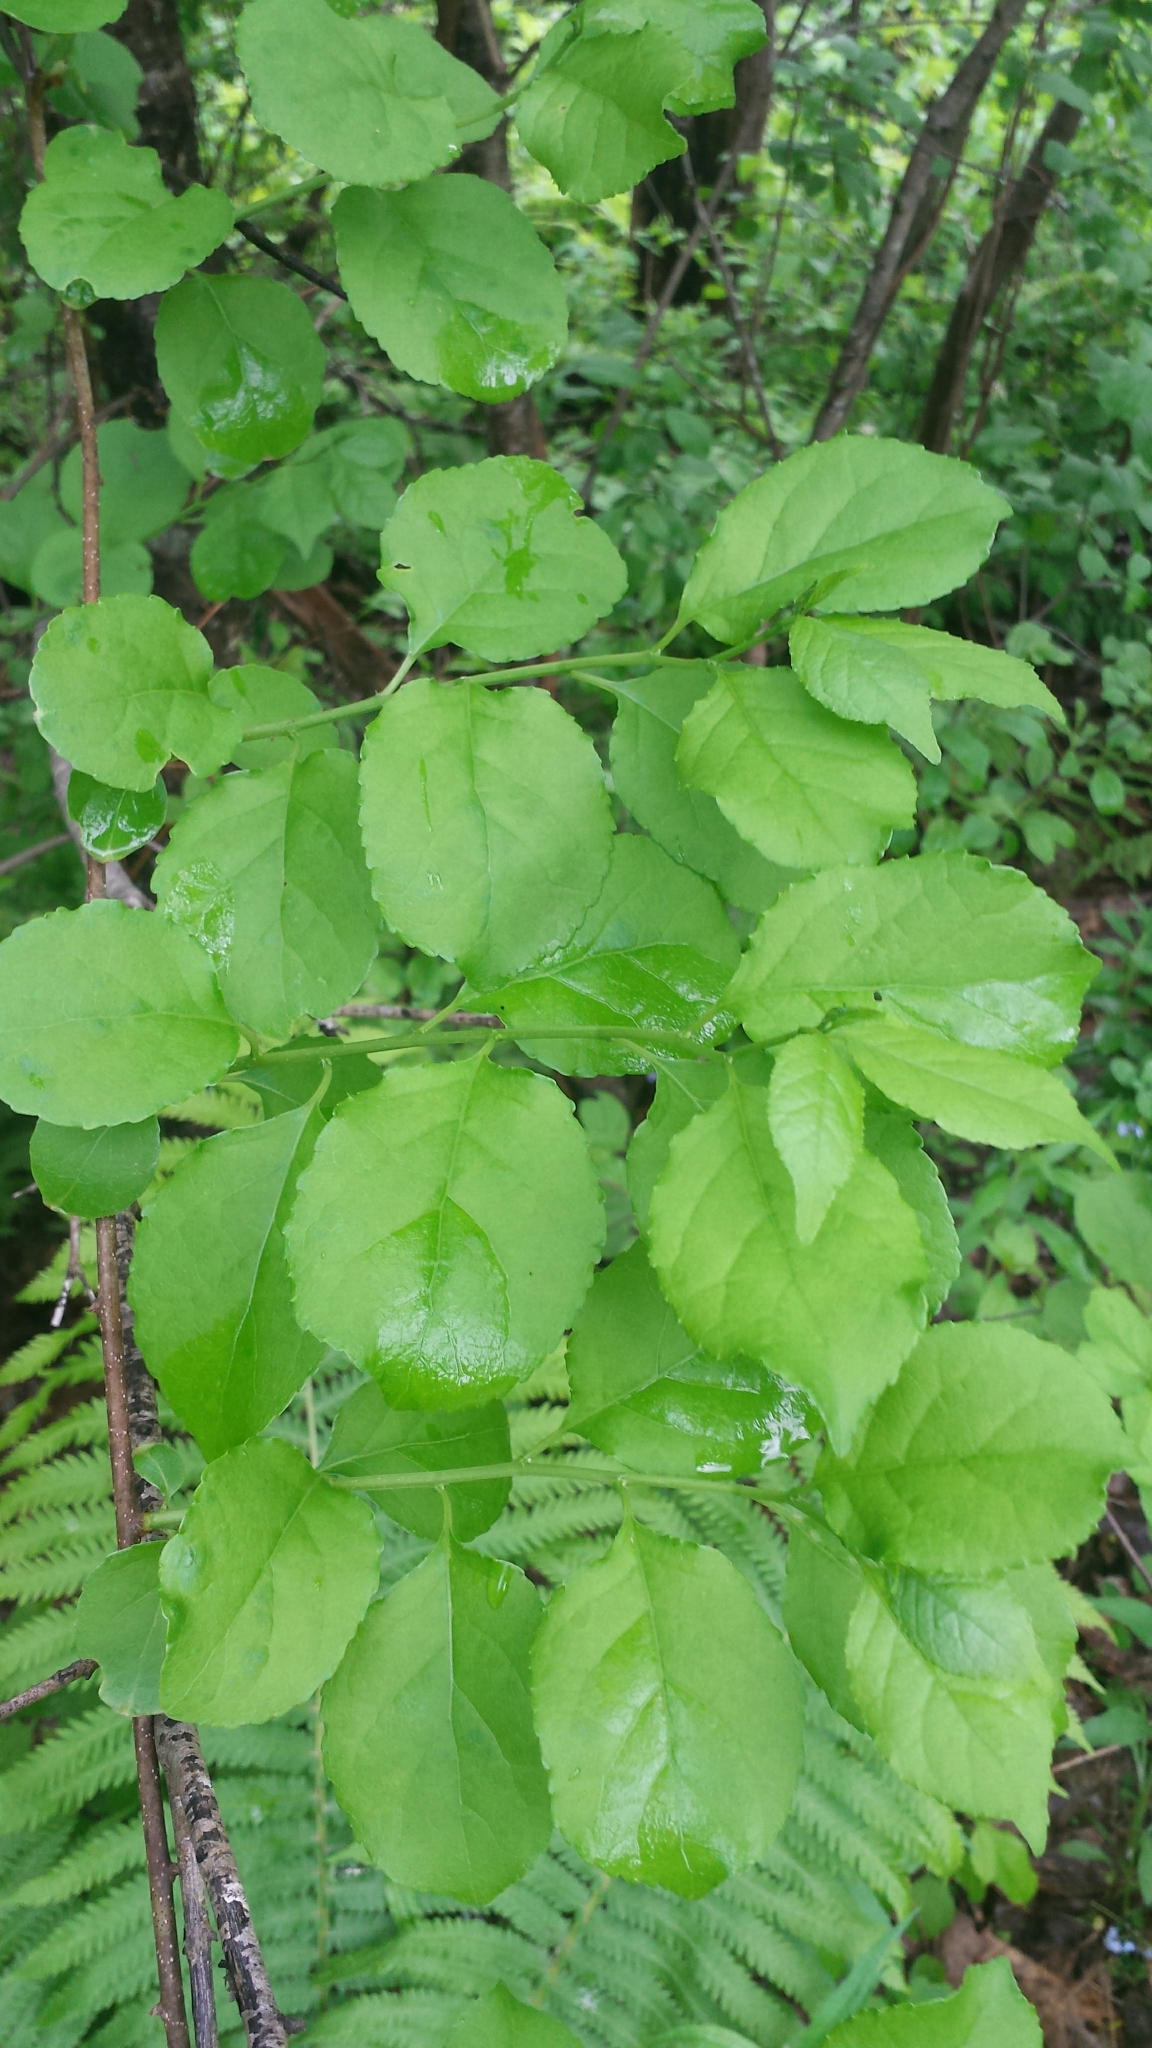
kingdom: Plantae
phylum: Tracheophyta
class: Magnoliopsida
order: Celastrales
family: Celastraceae
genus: Celastrus
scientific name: Celastrus orbiculatus
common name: Oriental bittersweet
